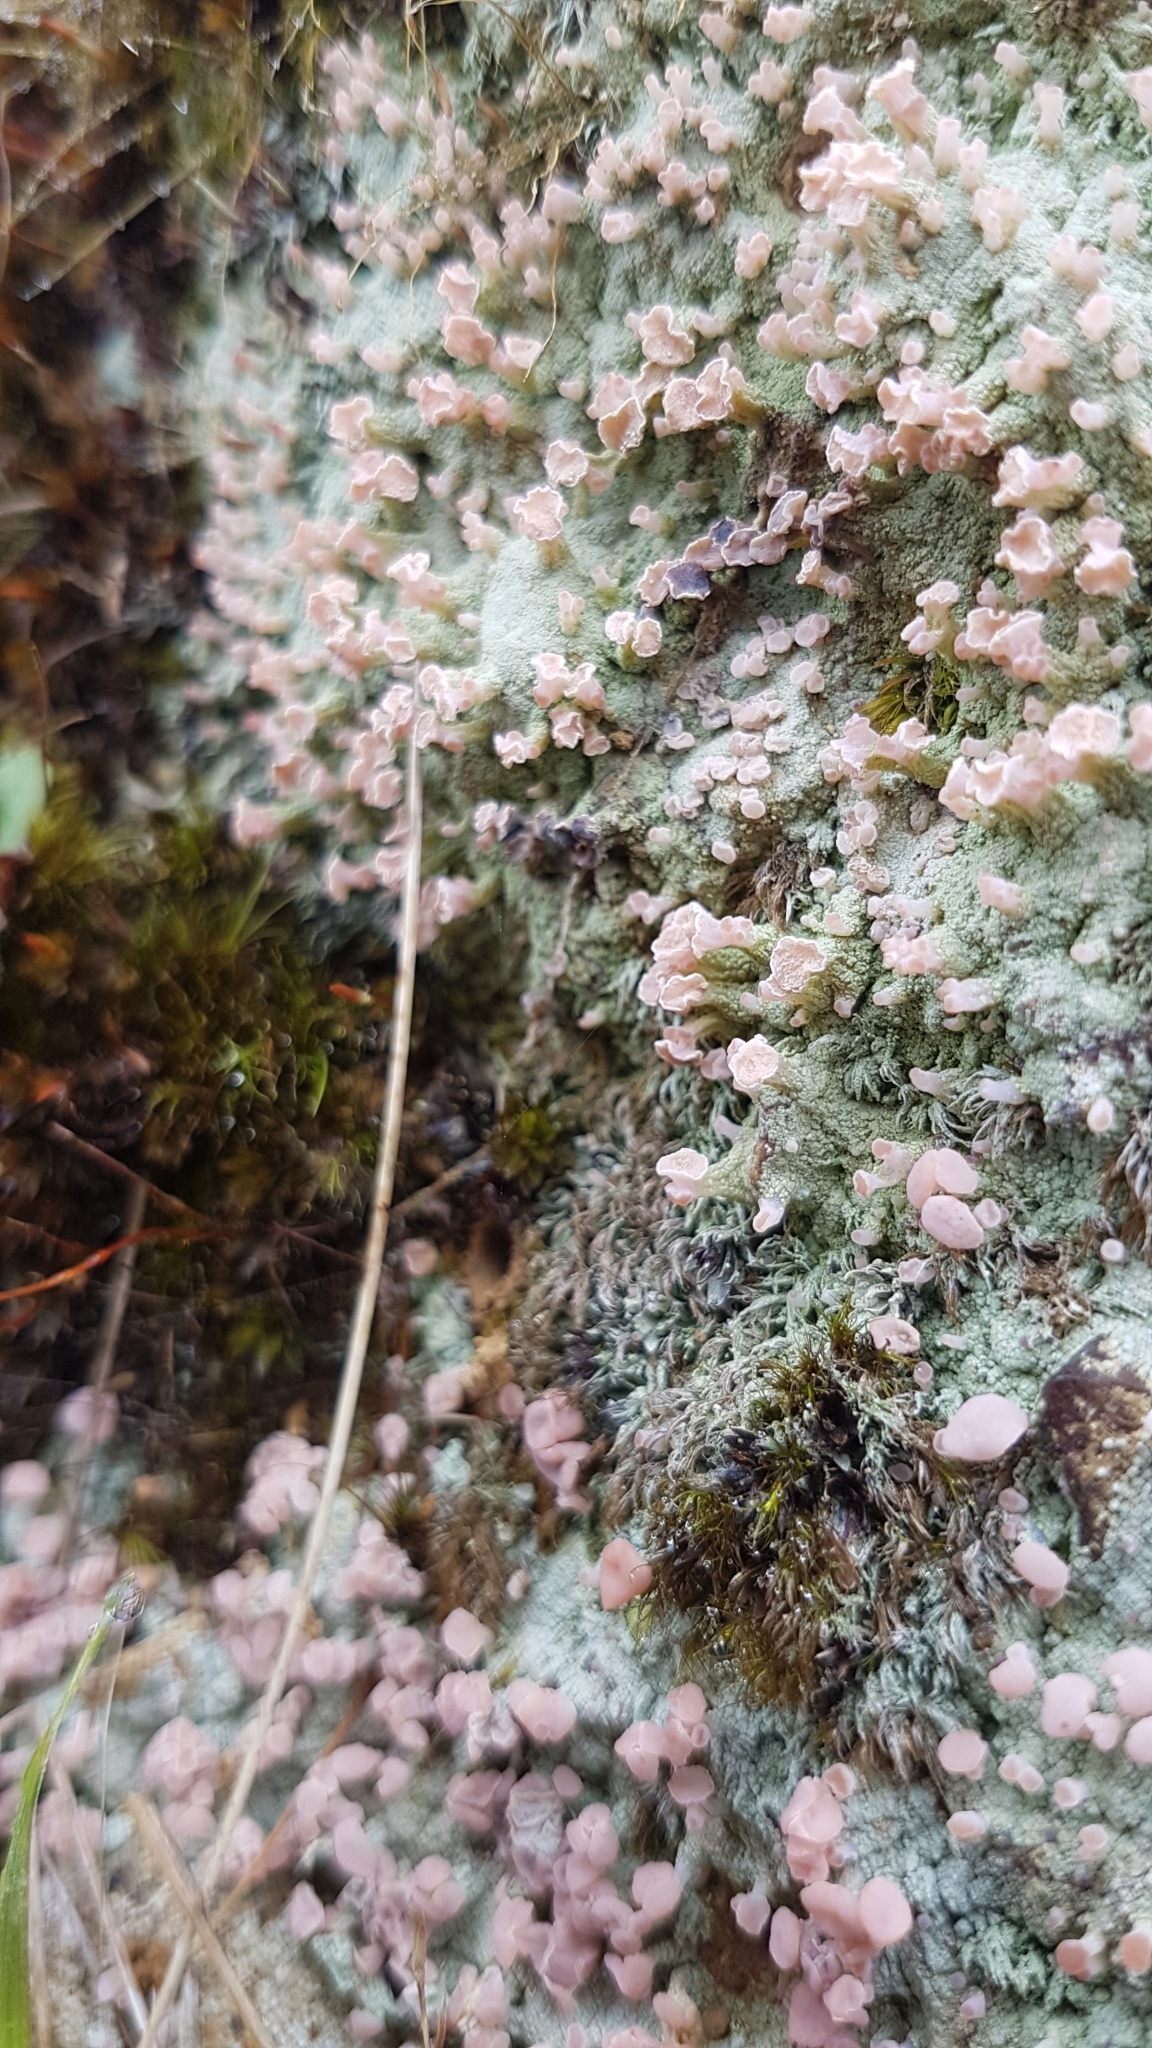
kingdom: Fungi
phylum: Ascomycota
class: Lecanoromycetes
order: Baeomycetales
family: Baeomycetaceae
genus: Baeomyces
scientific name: Baeomyces heteromorphus
